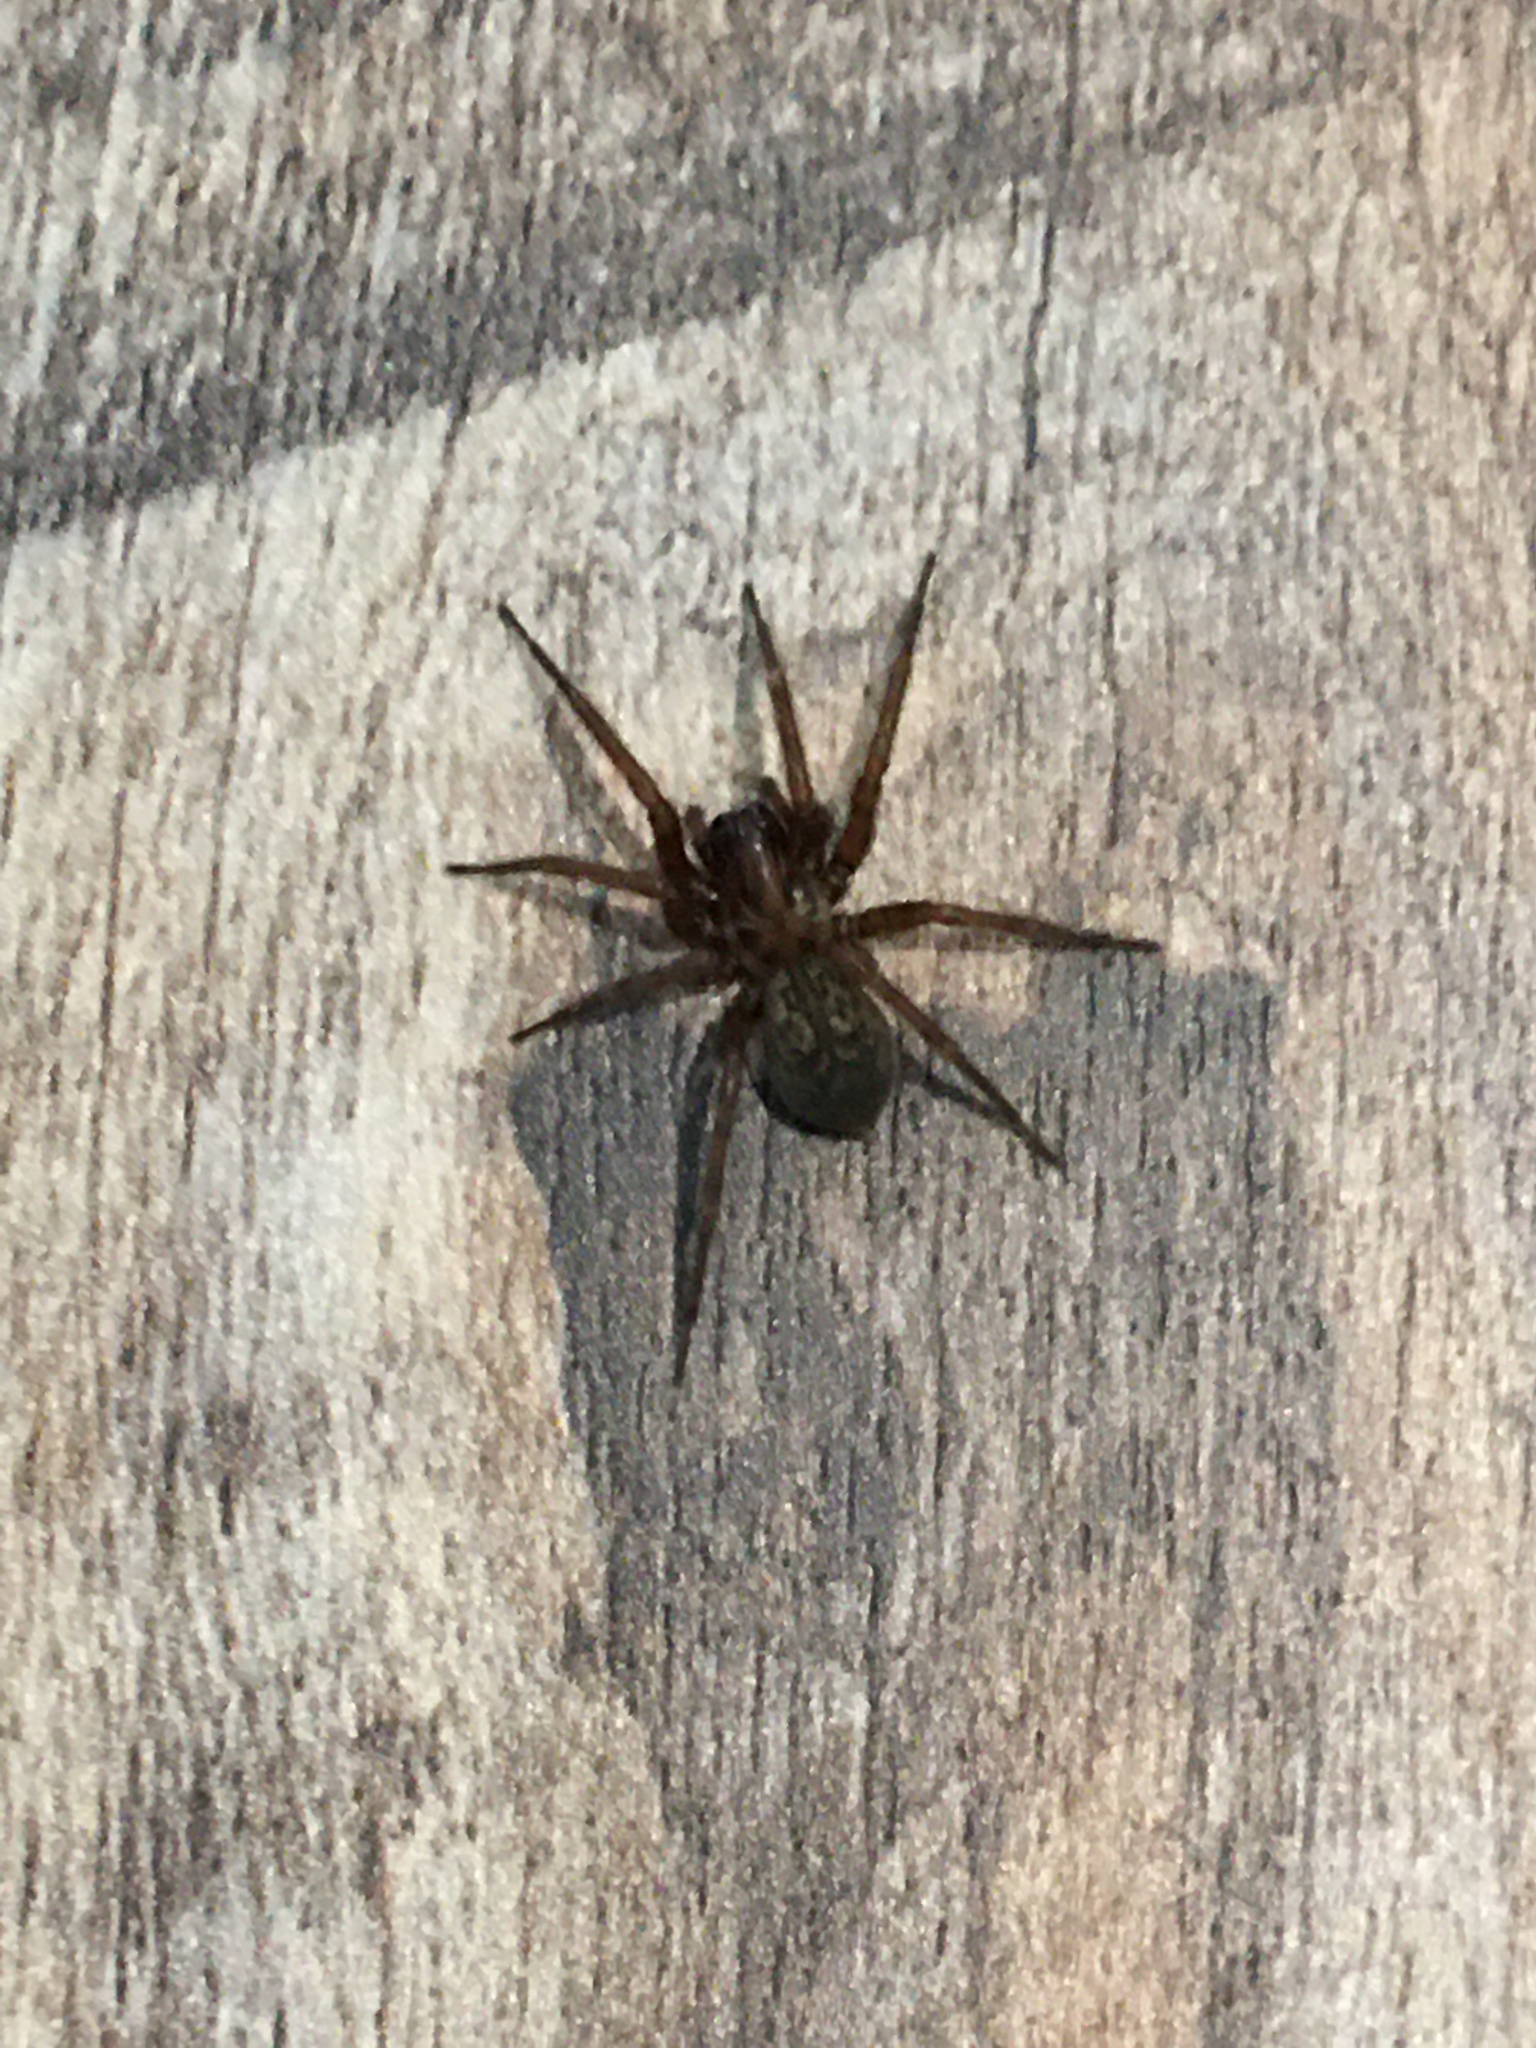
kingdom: Animalia
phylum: Arthropoda
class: Arachnida
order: Araneae
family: Agelenidae
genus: Coras
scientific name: Coras
